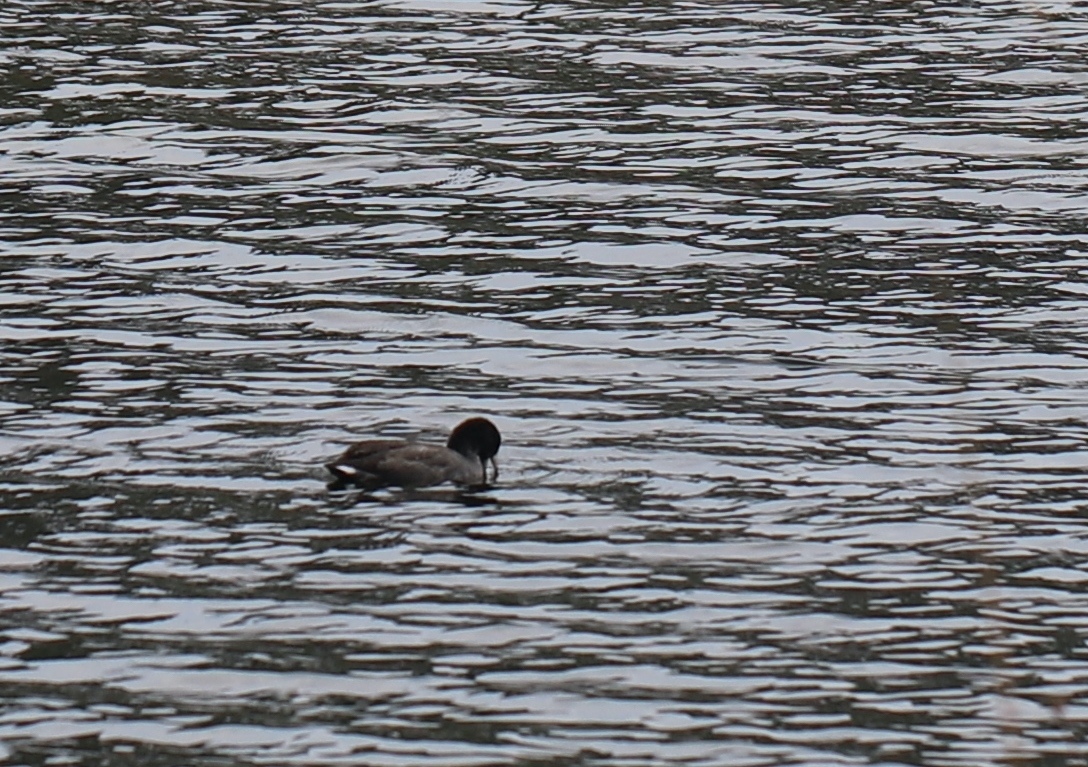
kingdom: Animalia
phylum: Chordata
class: Aves
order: Gruiformes
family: Rallidae
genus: Fulica
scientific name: Fulica americana
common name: American coot
